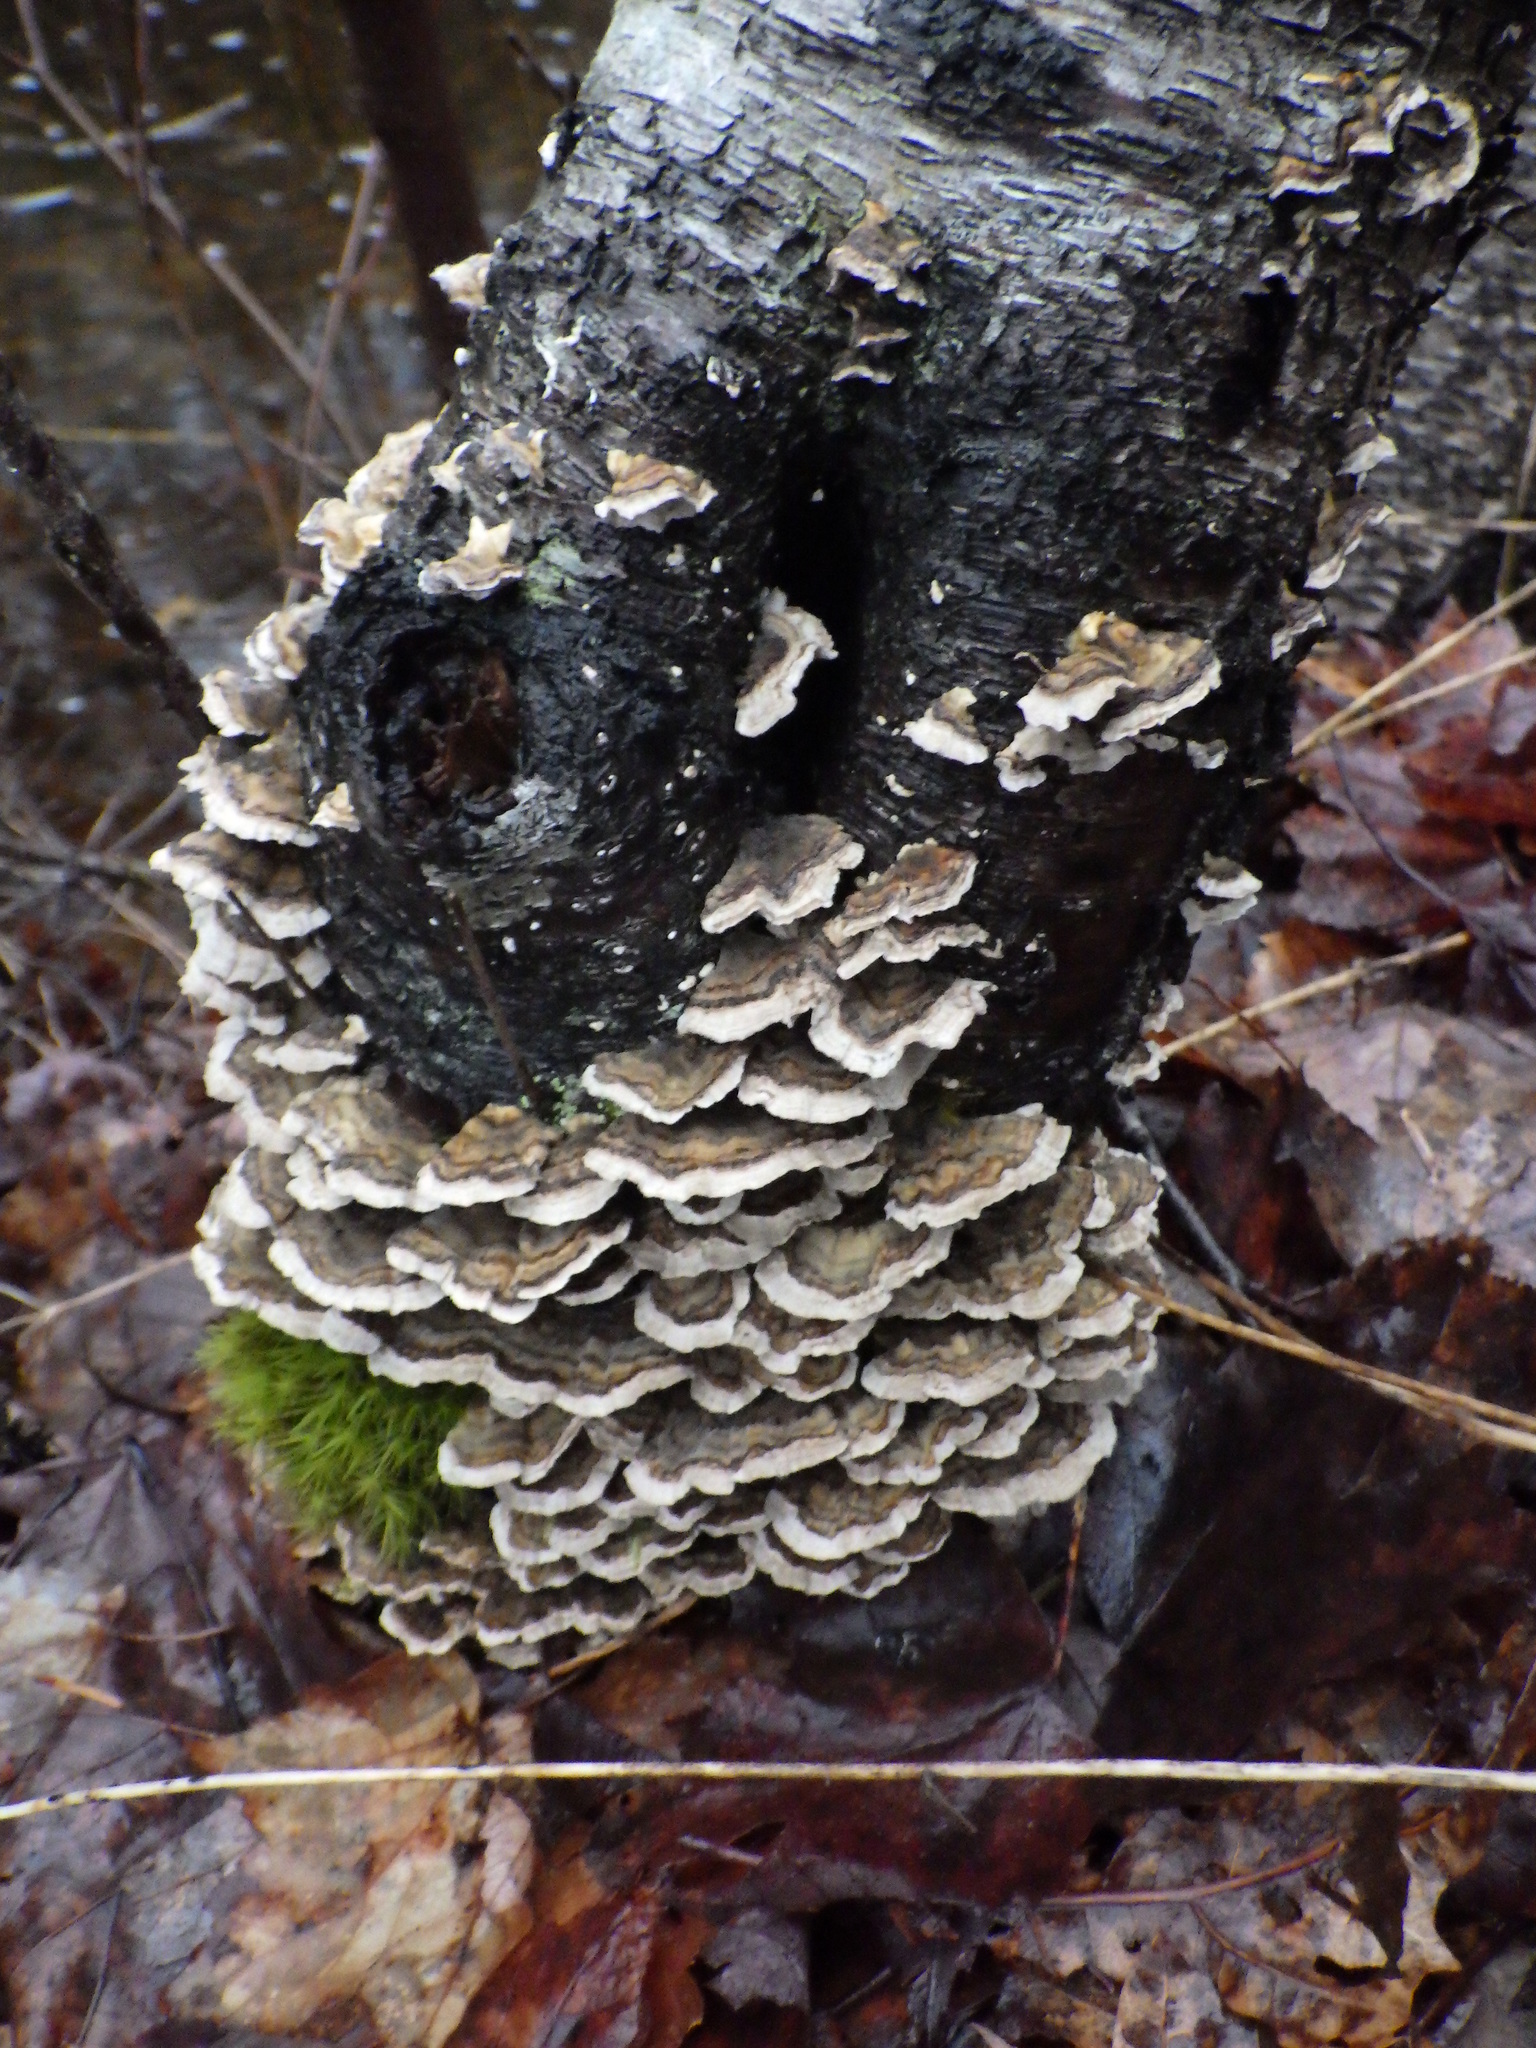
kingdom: Fungi
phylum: Basidiomycota
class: Agaricomycetes
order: Polyporales
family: Polyporaceae
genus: Trametes
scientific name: Trametes versicolor
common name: Turkeytail
